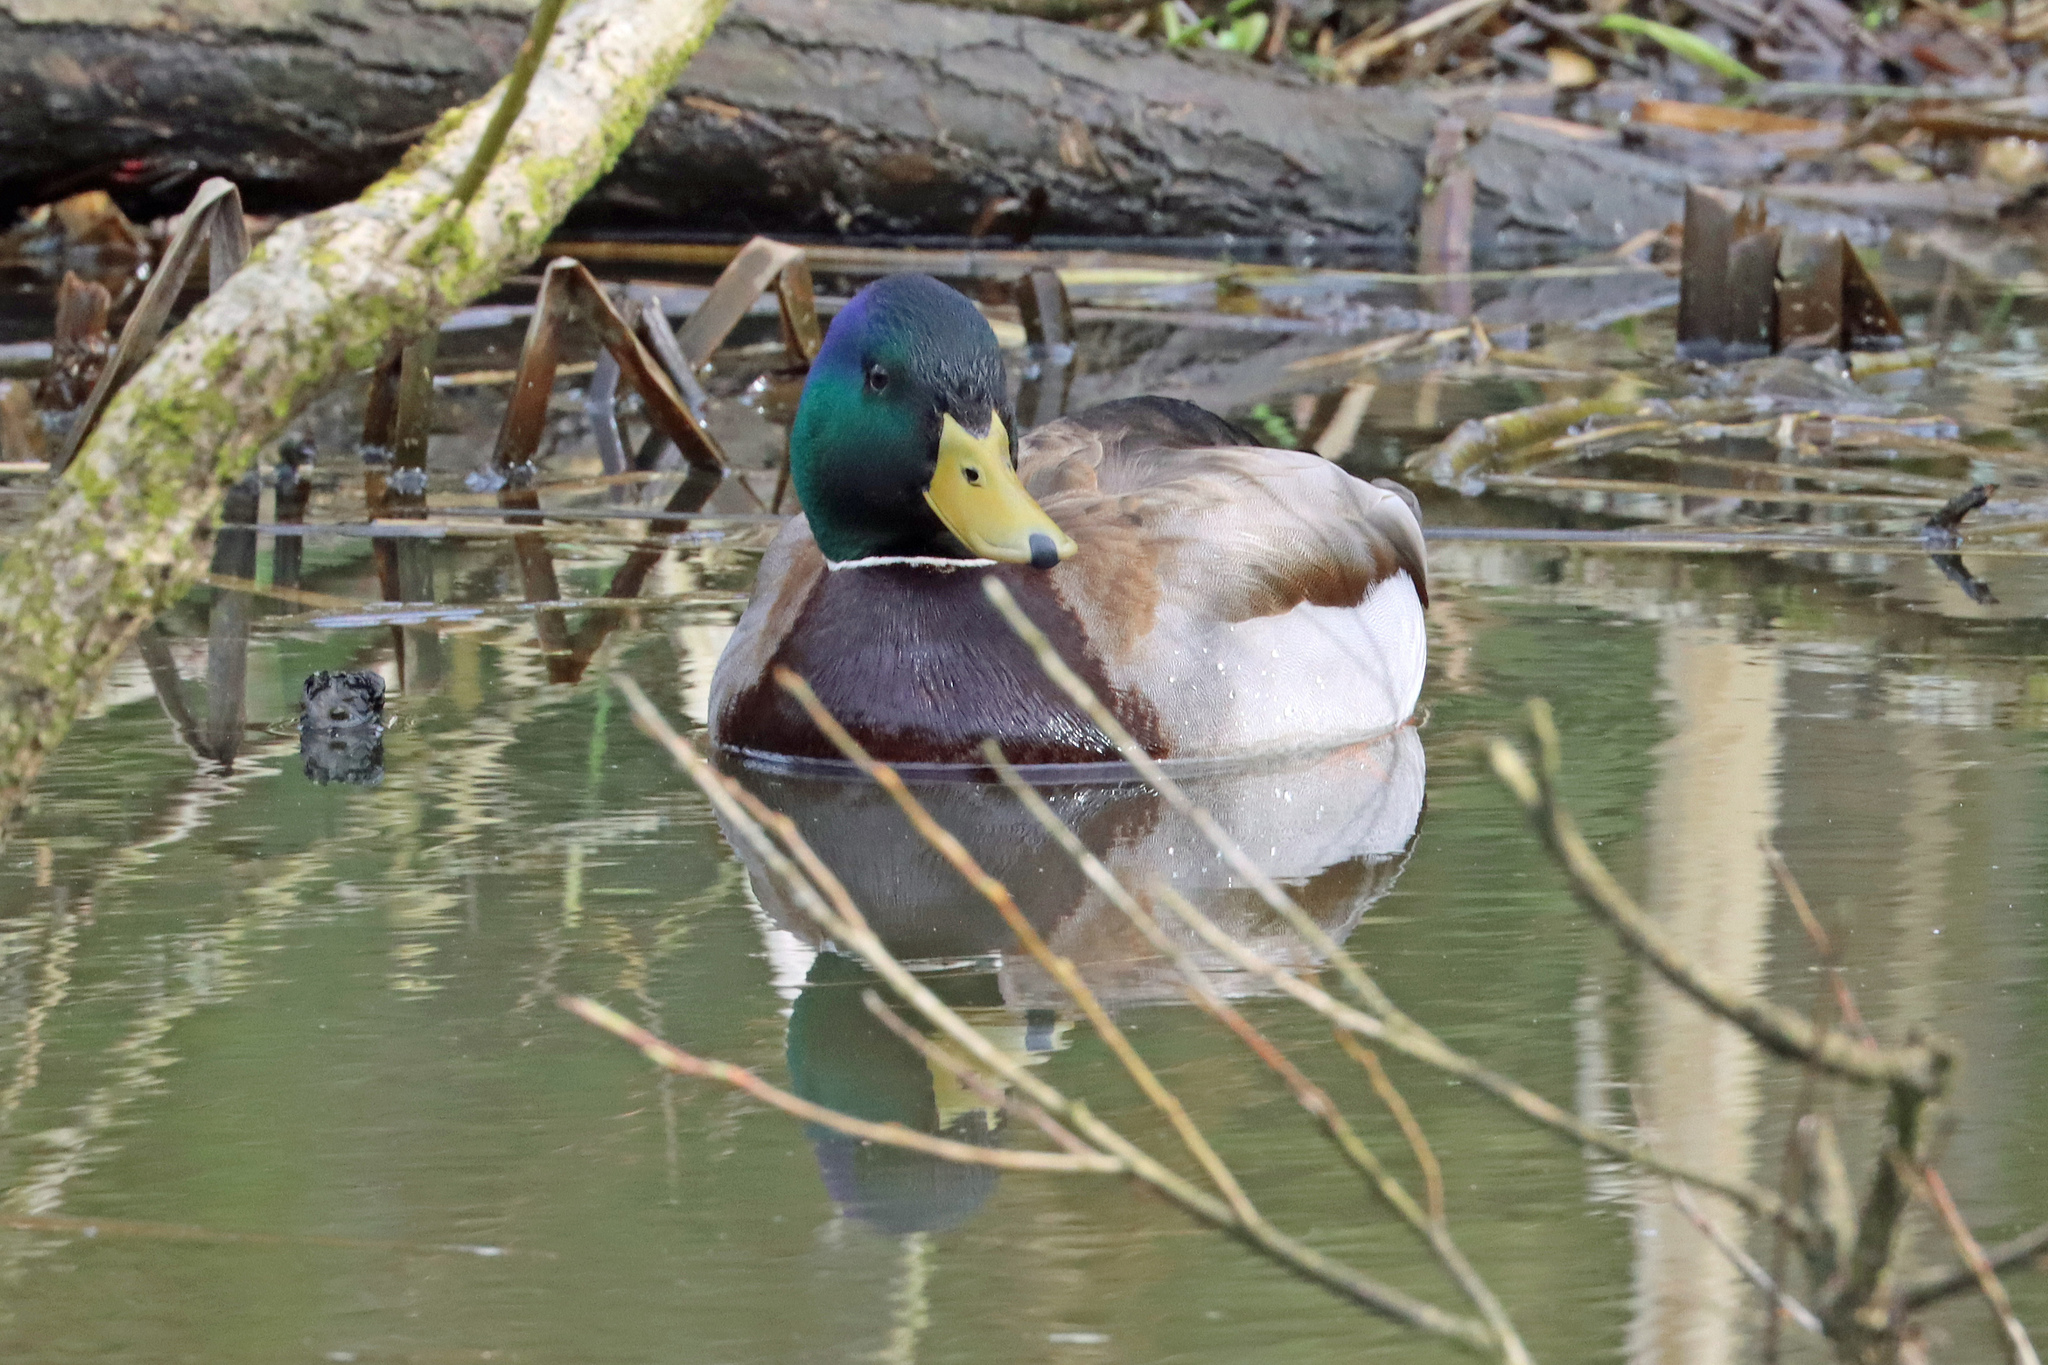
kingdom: Animalia
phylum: Chordata
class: Aves
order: Anseriformes
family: Anatidae
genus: Anas
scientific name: Anas platyrhynchos
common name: Mallard
